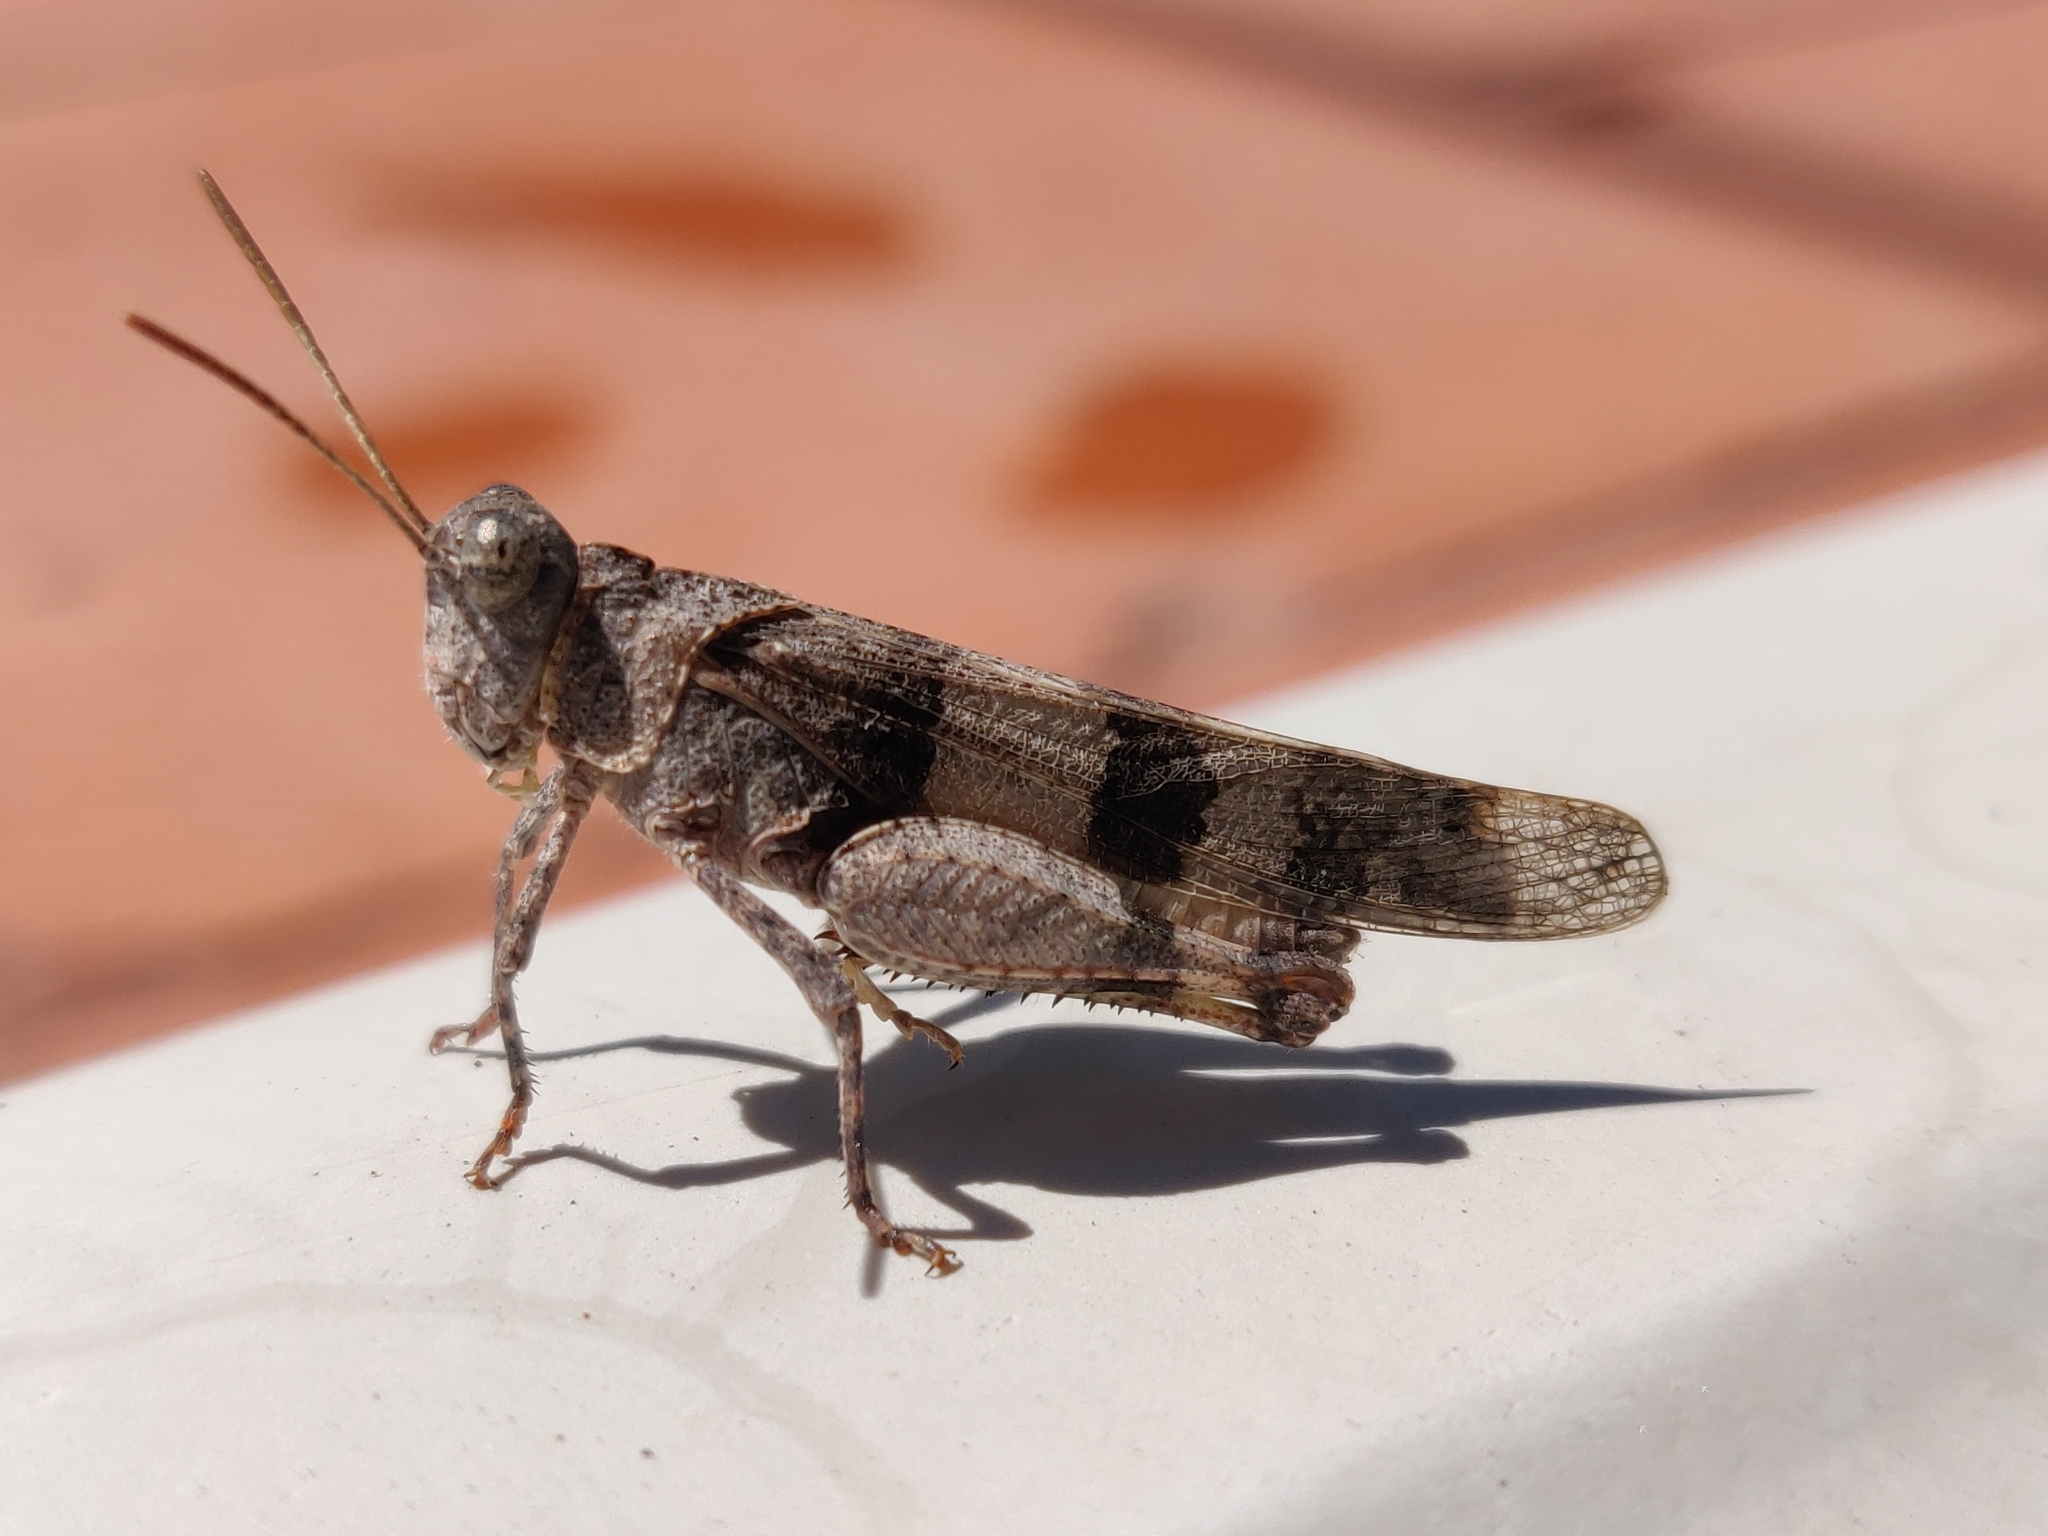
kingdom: Animalia
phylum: Arthropoda
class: Insecta
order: Orthoptera
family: Acrididae
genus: Oedipoda
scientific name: Oedipoda caerulescens
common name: Blue-winged grasshopper
